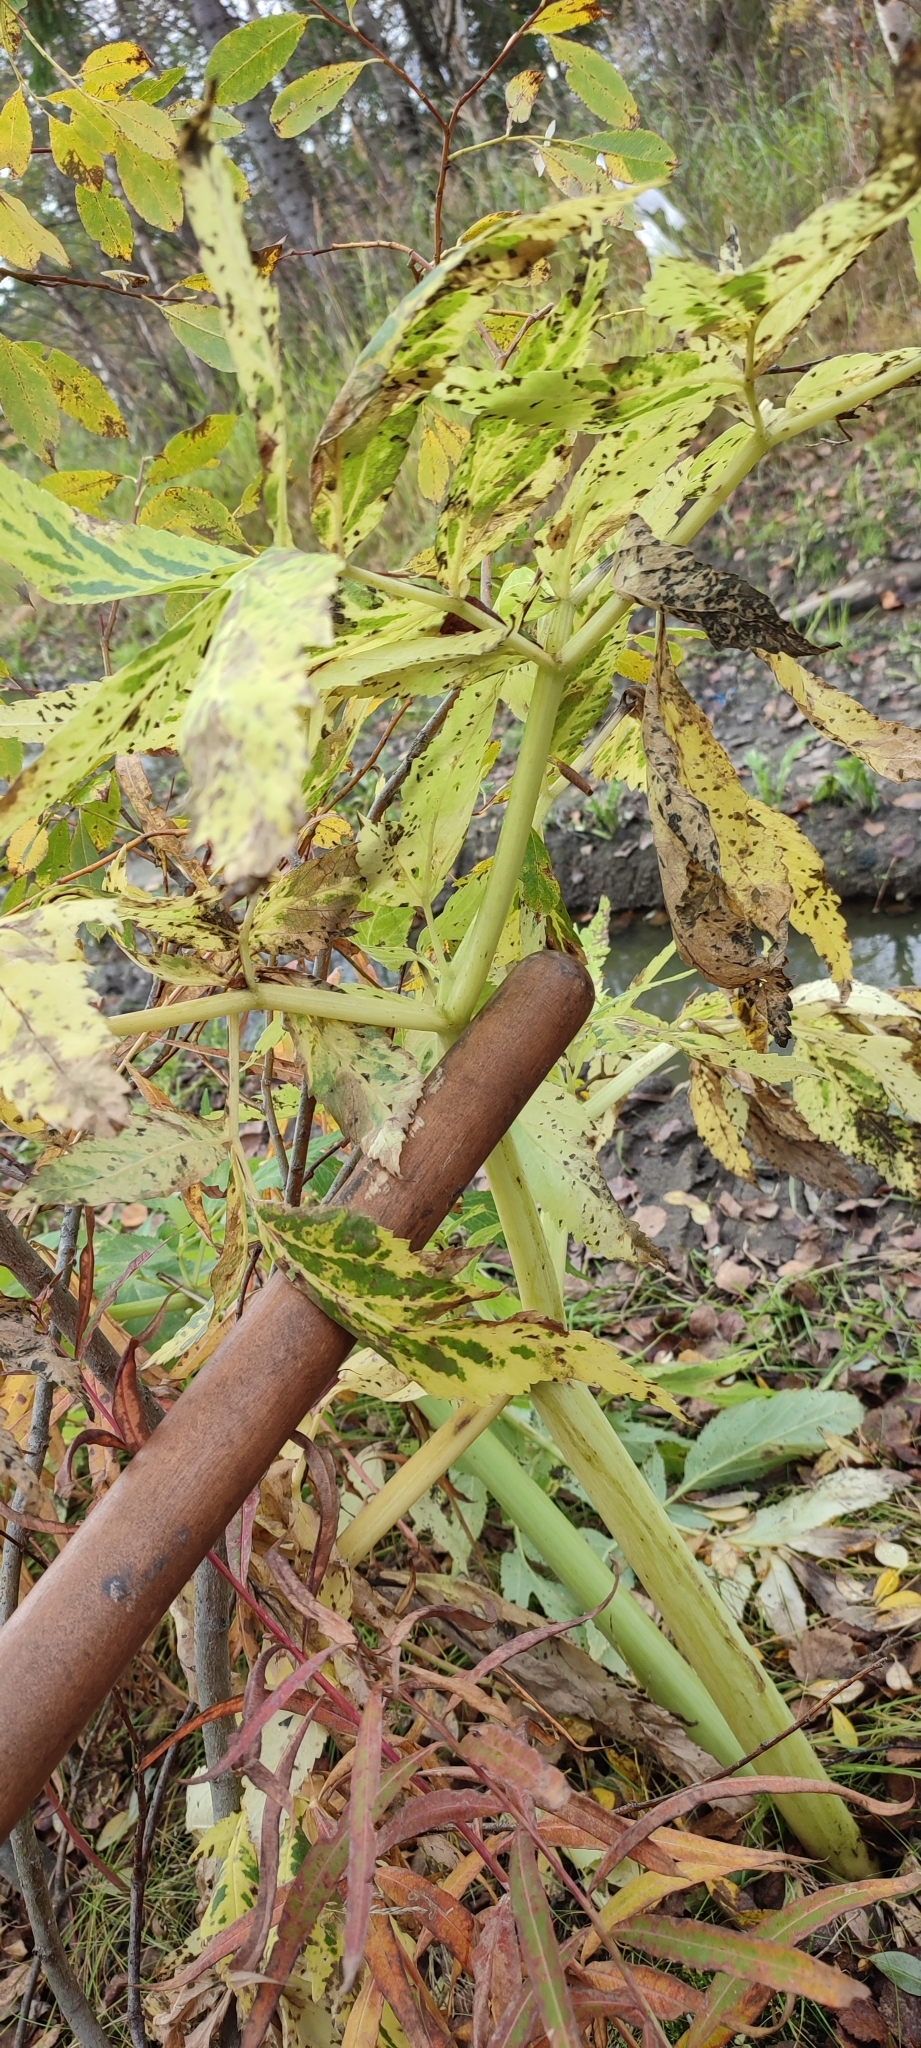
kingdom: Plantae
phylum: Tracheophyta
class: Magnoliopsida
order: Apiales
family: Apiaceae
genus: Angelica
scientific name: Angelica decurrens
